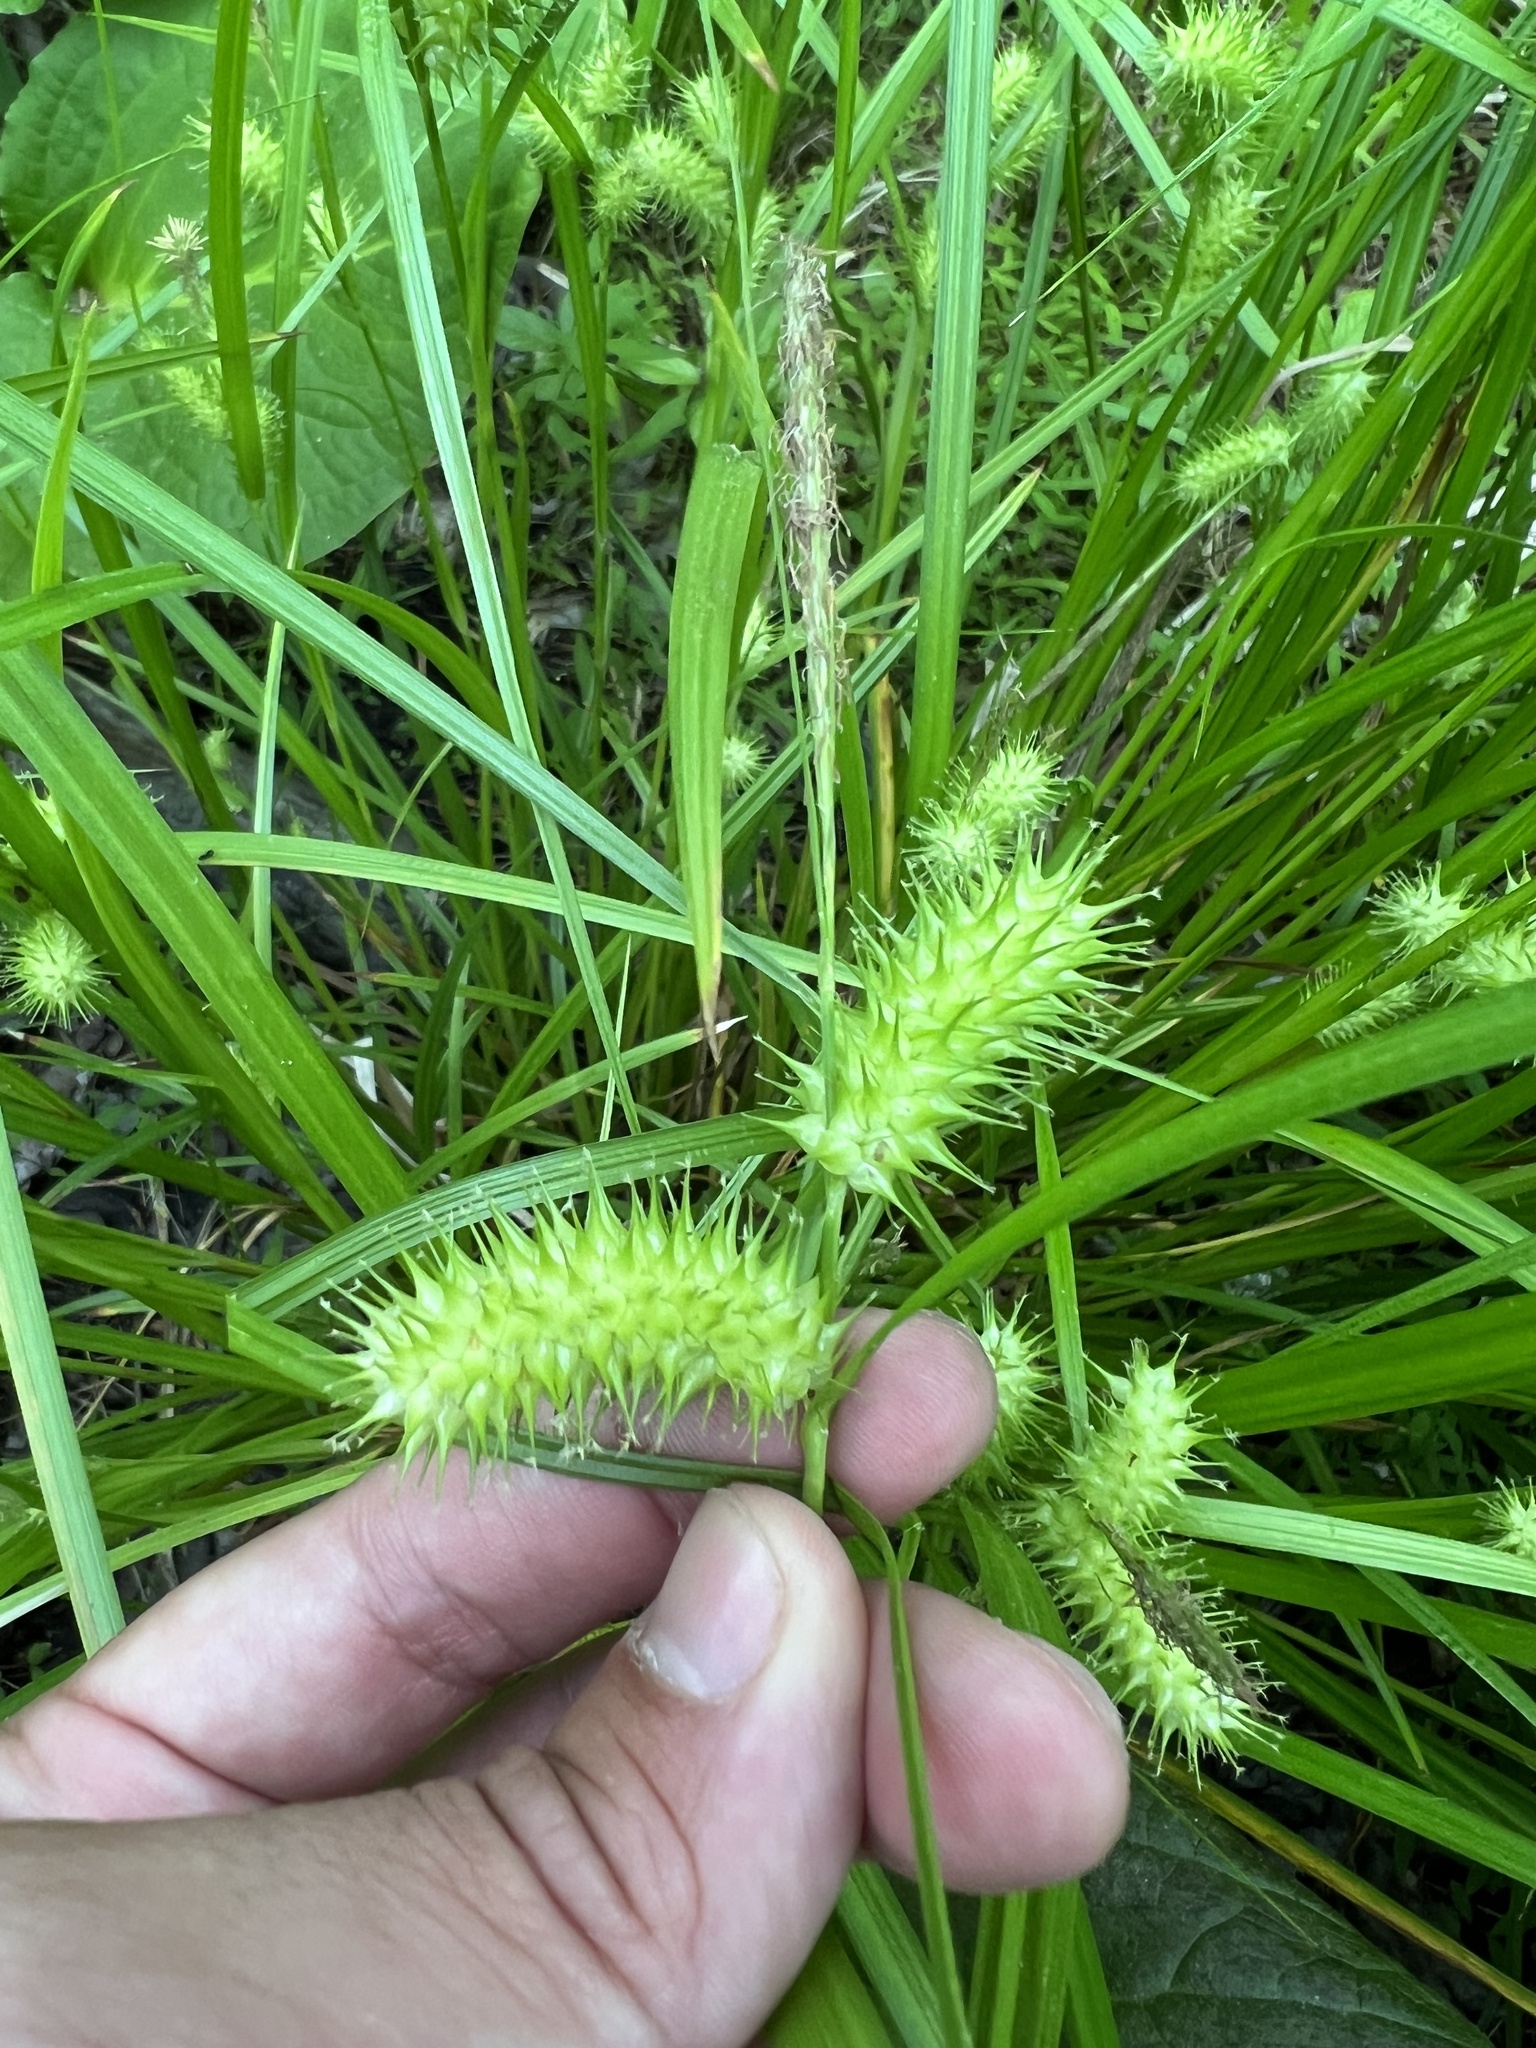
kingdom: Plantae
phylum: Tracheophyta
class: Liliopsida
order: Poales
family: Cyperaceae
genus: Carex
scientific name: Carex lurida
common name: Sallow sedge
